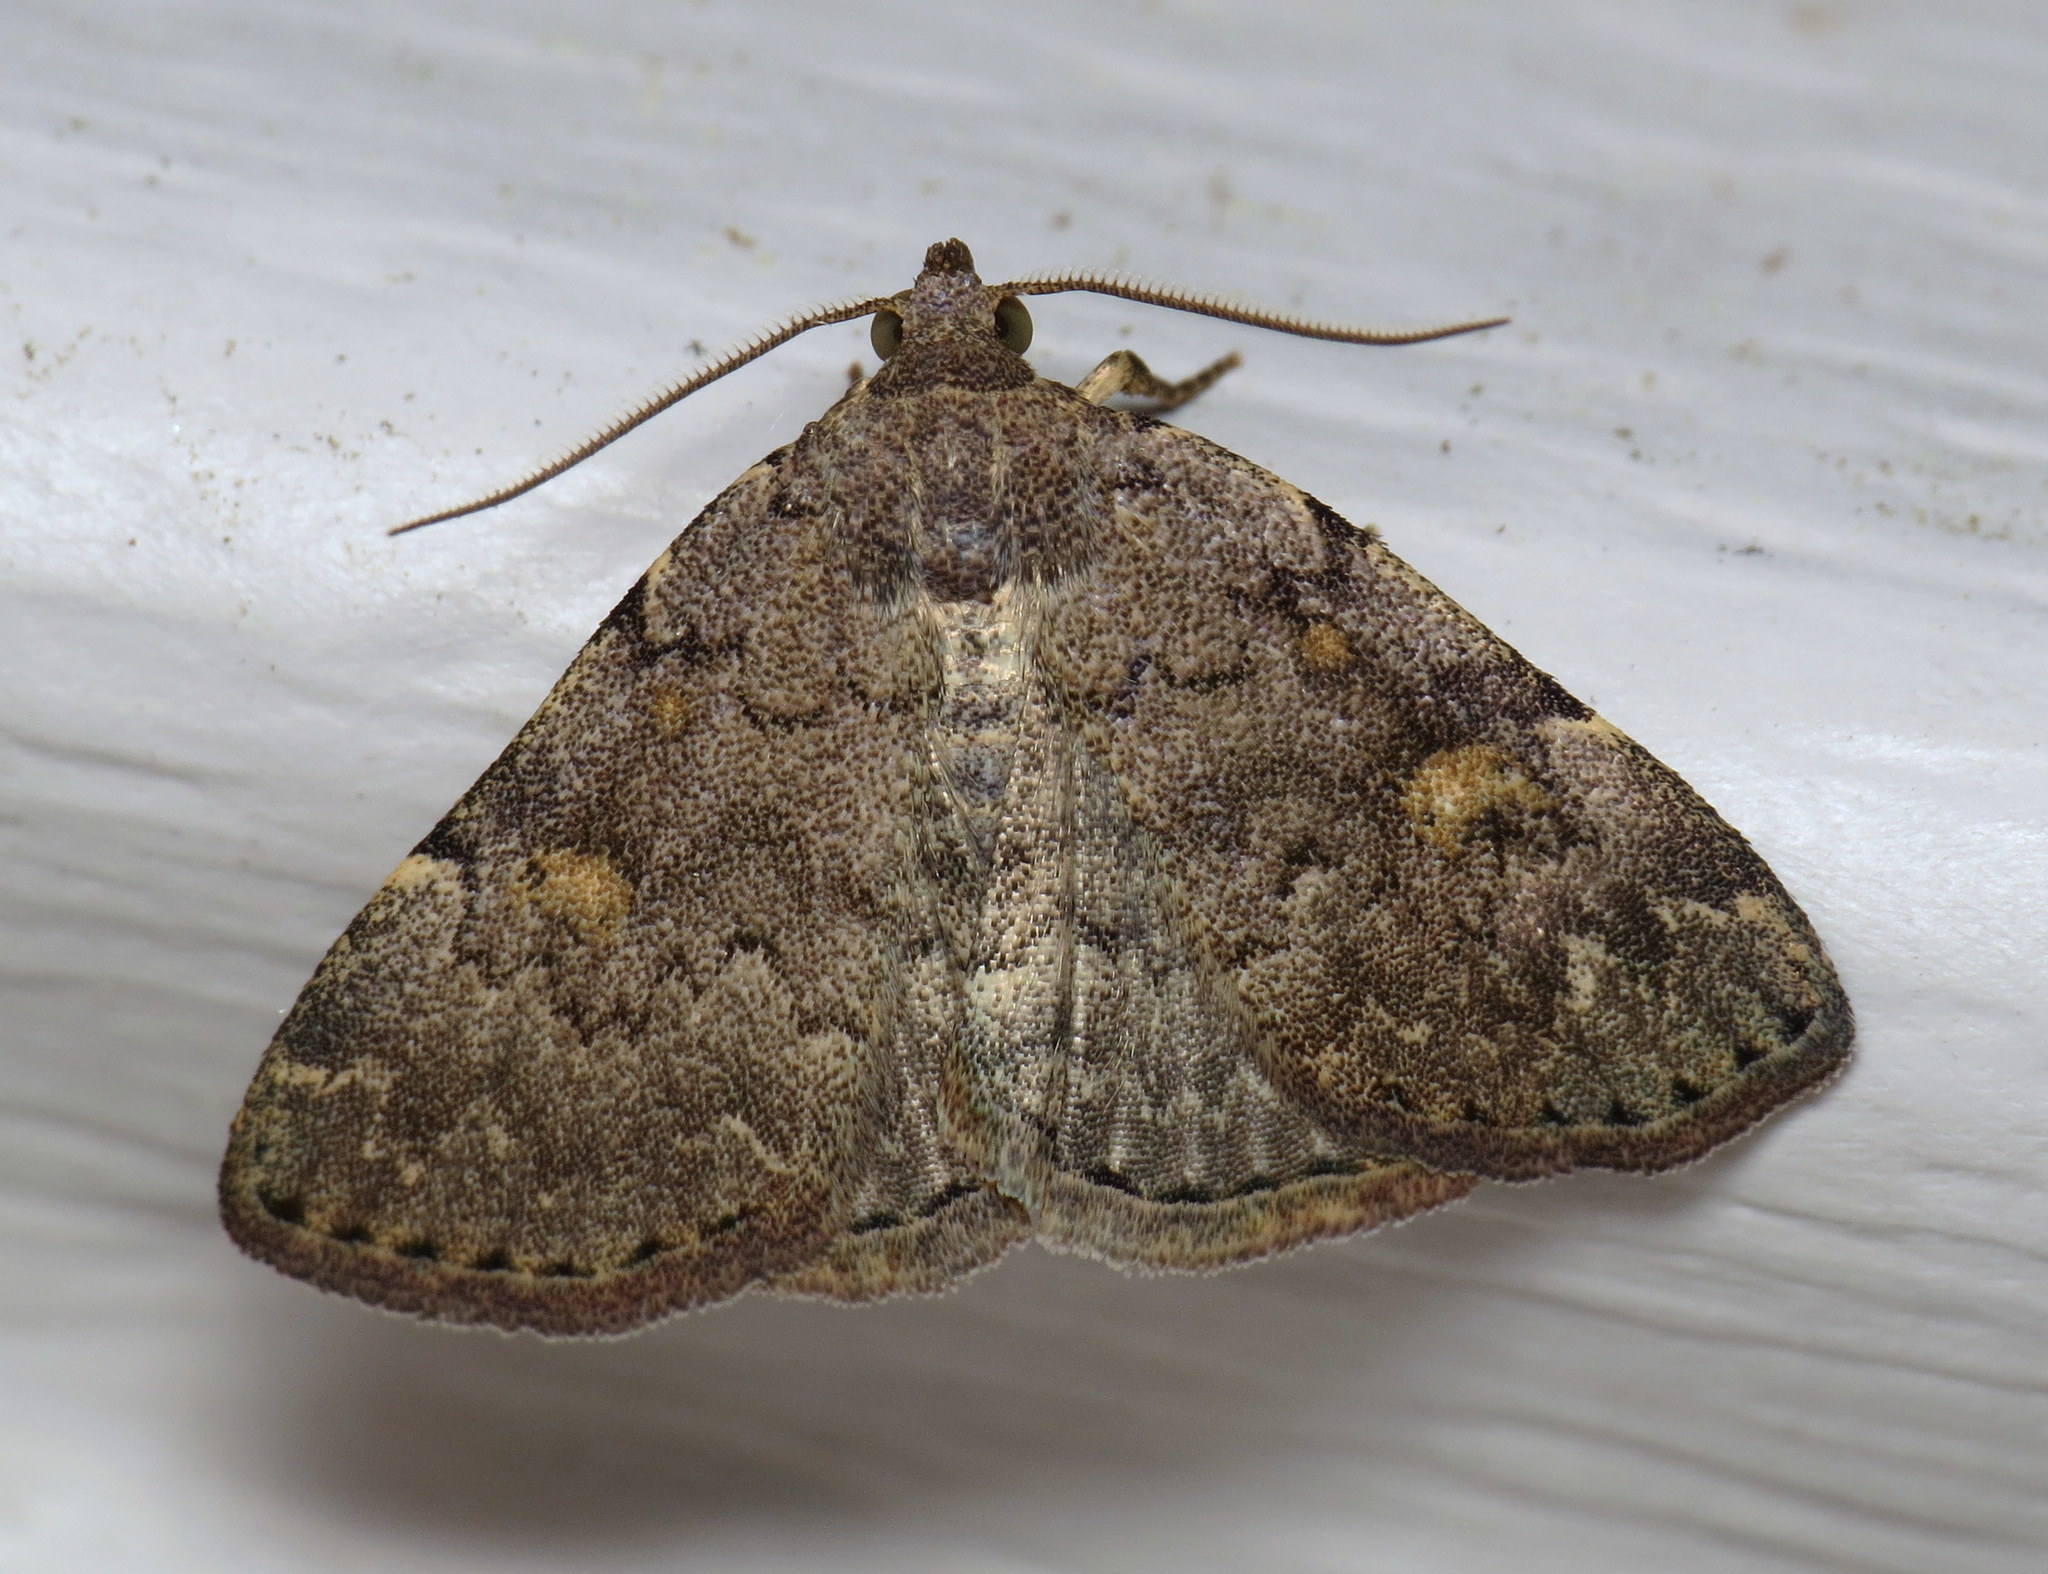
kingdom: Animalia
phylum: Arthropoda
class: Insecta
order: Lepidoptera
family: Erebidae
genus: Idia
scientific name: Idia aemula
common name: Common idia moth
